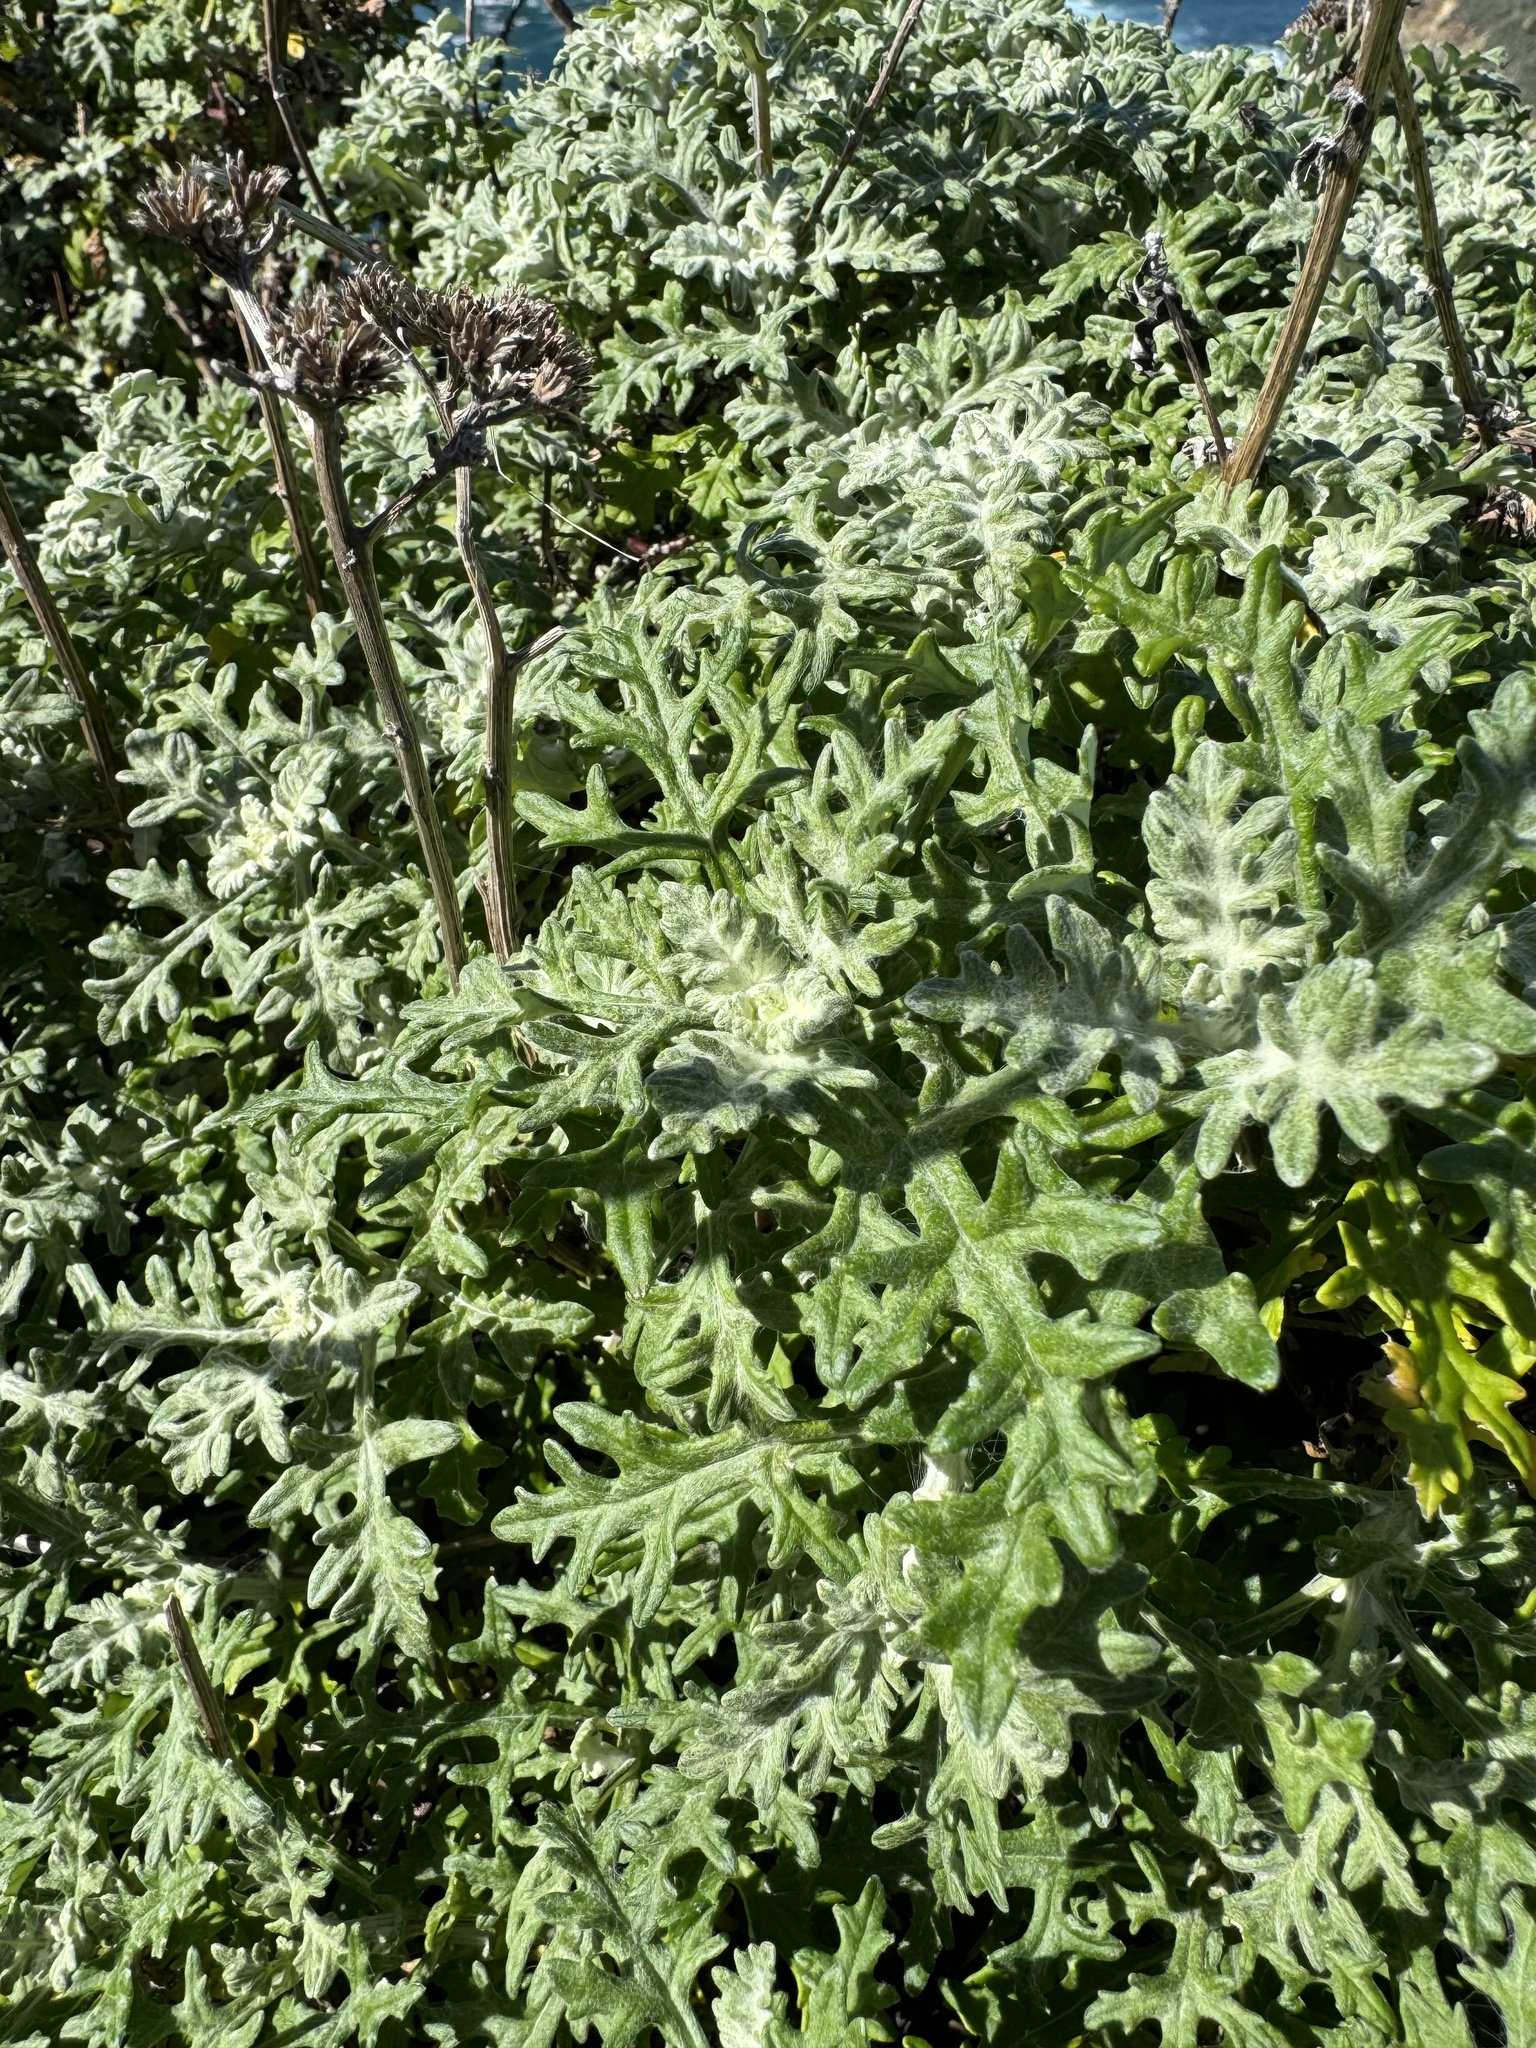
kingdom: Plantae
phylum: Tracheophyta
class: Magnoliopsida
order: Asterales
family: Asteraceae
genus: Eriophyllum
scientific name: Eriophyllum staechadifolium
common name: Lizardtail
